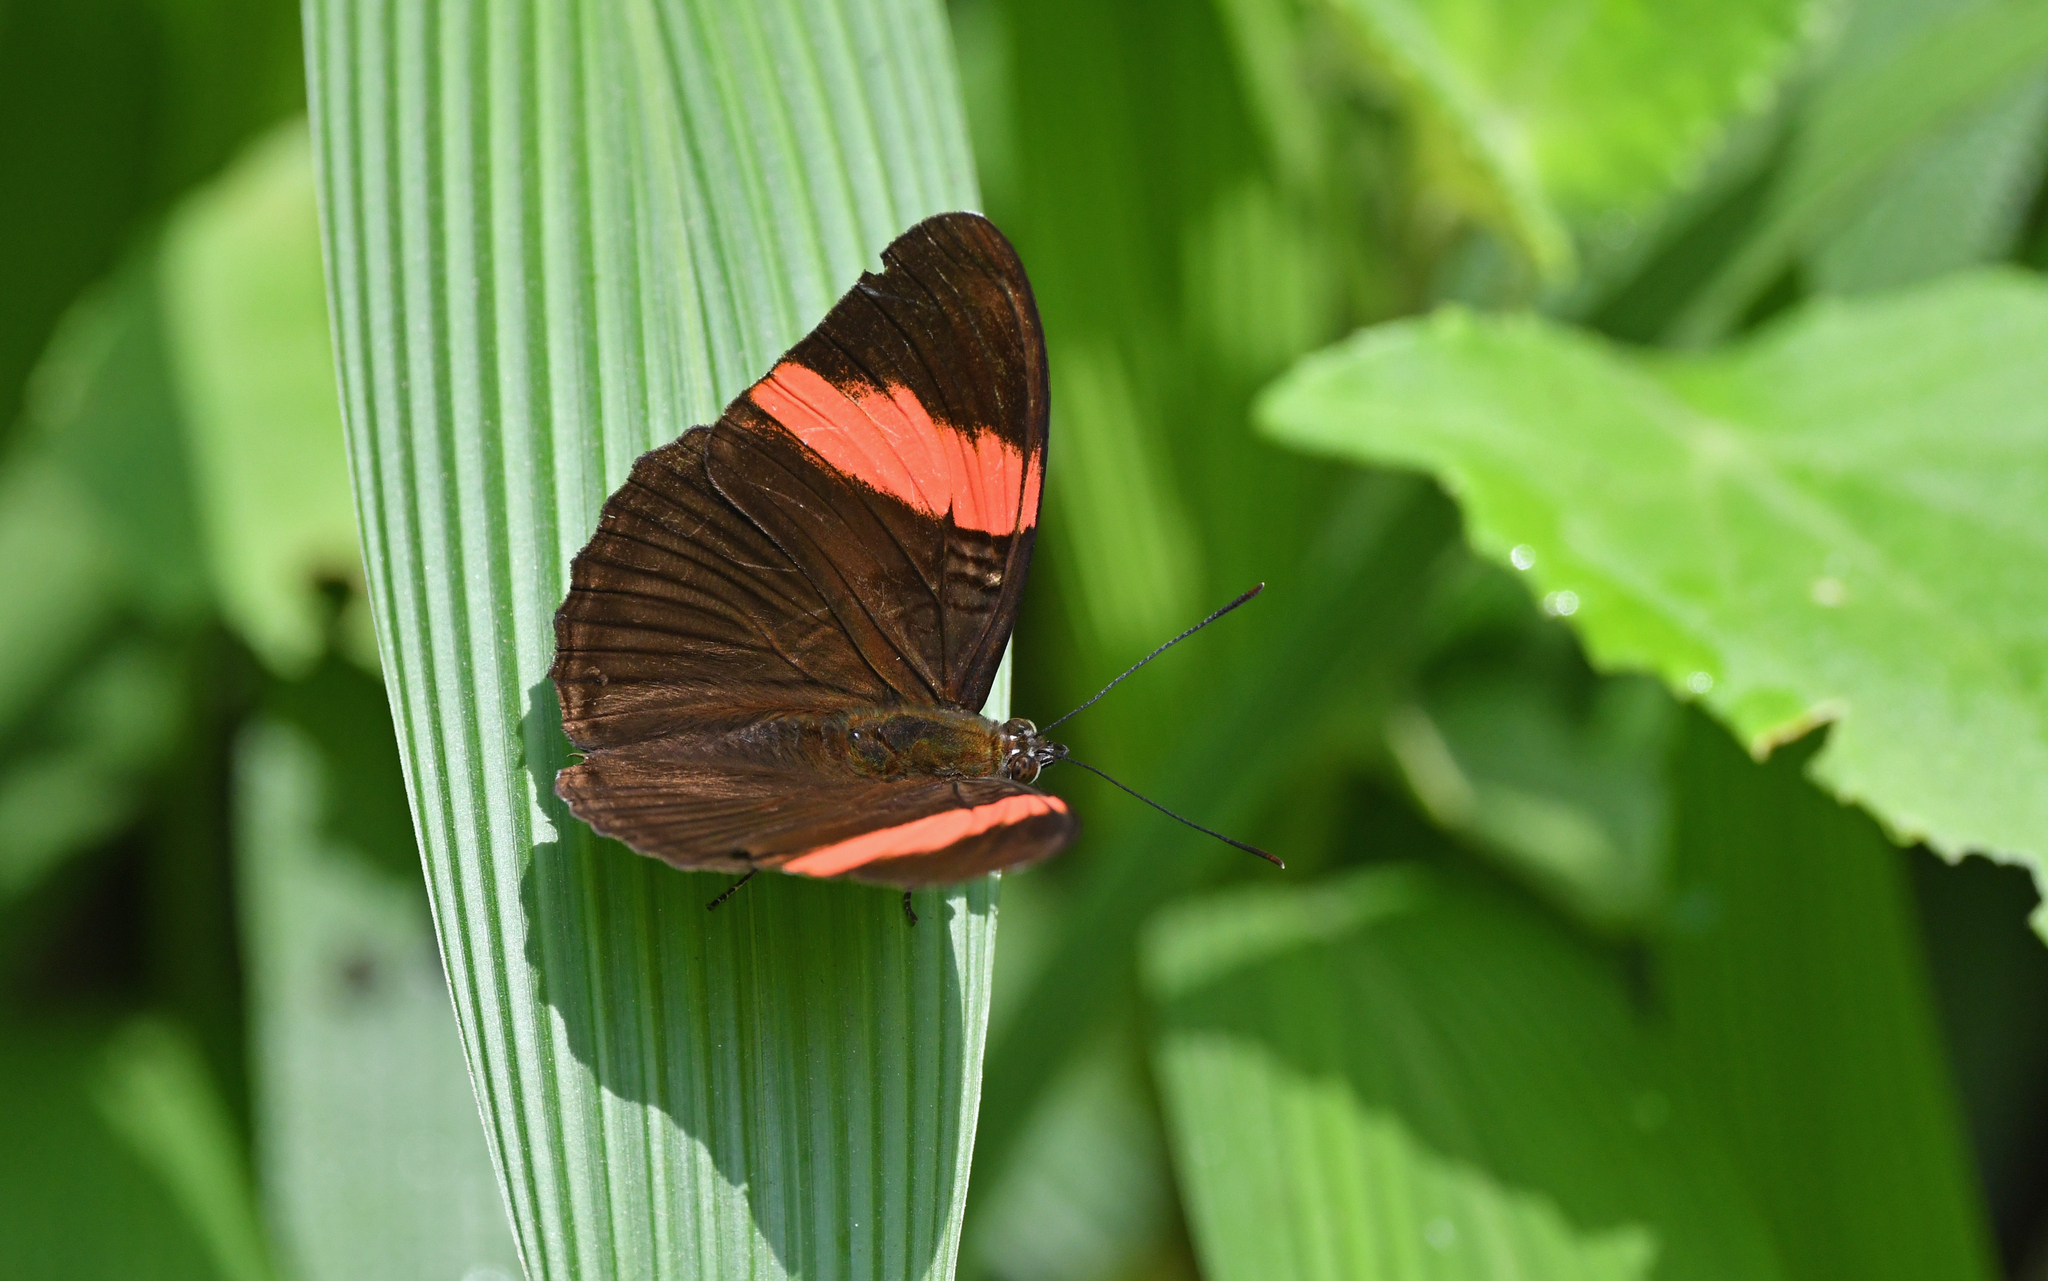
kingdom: Animalia
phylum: Arthropoda
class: Insecta
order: Lepidoptera
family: Nymphalidae
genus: Limenitis
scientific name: Limenitis isis
